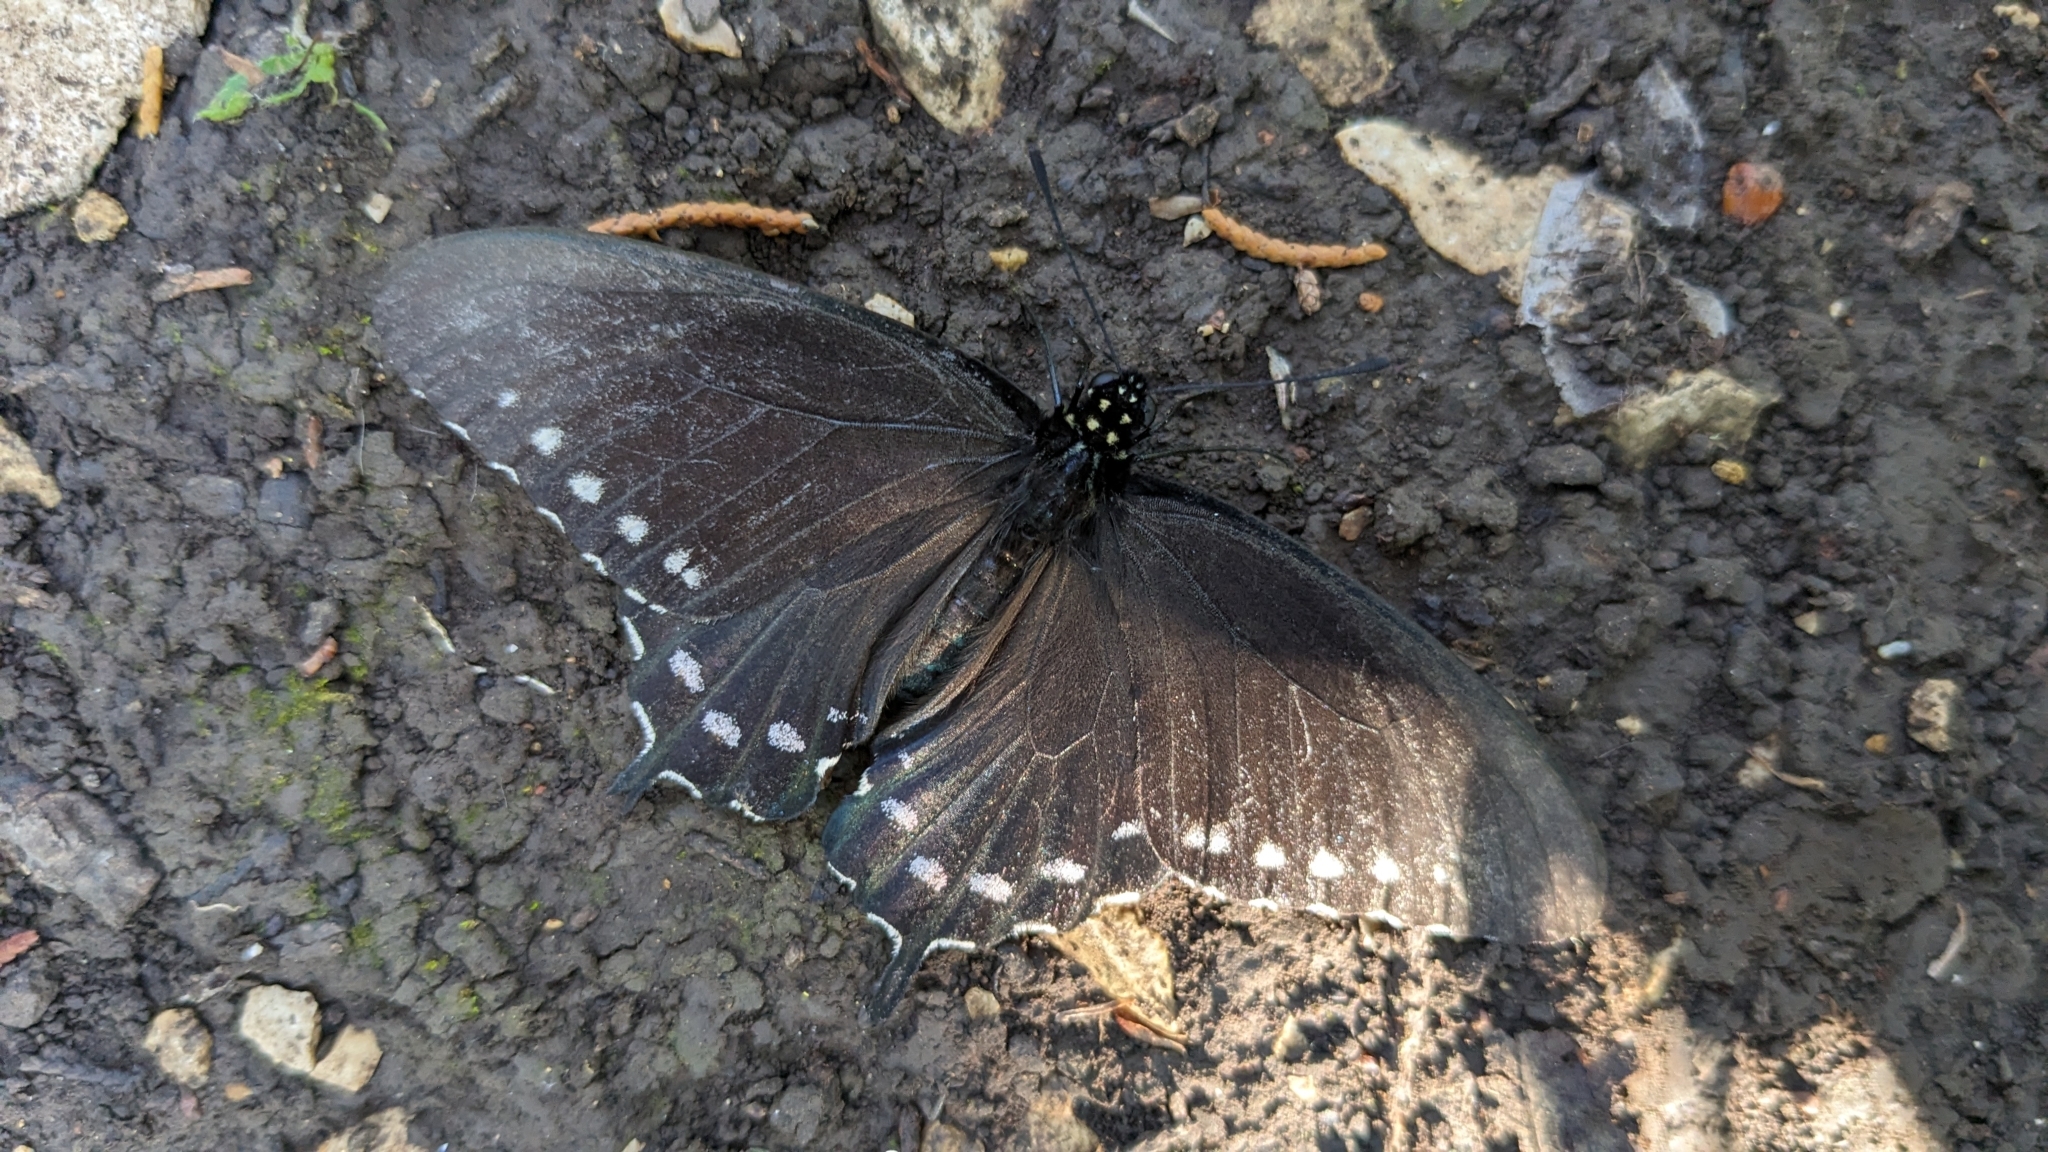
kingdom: Animalia
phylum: Arthropoda
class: Insecta
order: Lepidoptera
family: Papilionidae
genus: Battus
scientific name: Battus philenor
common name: Pipevine swallowtail
